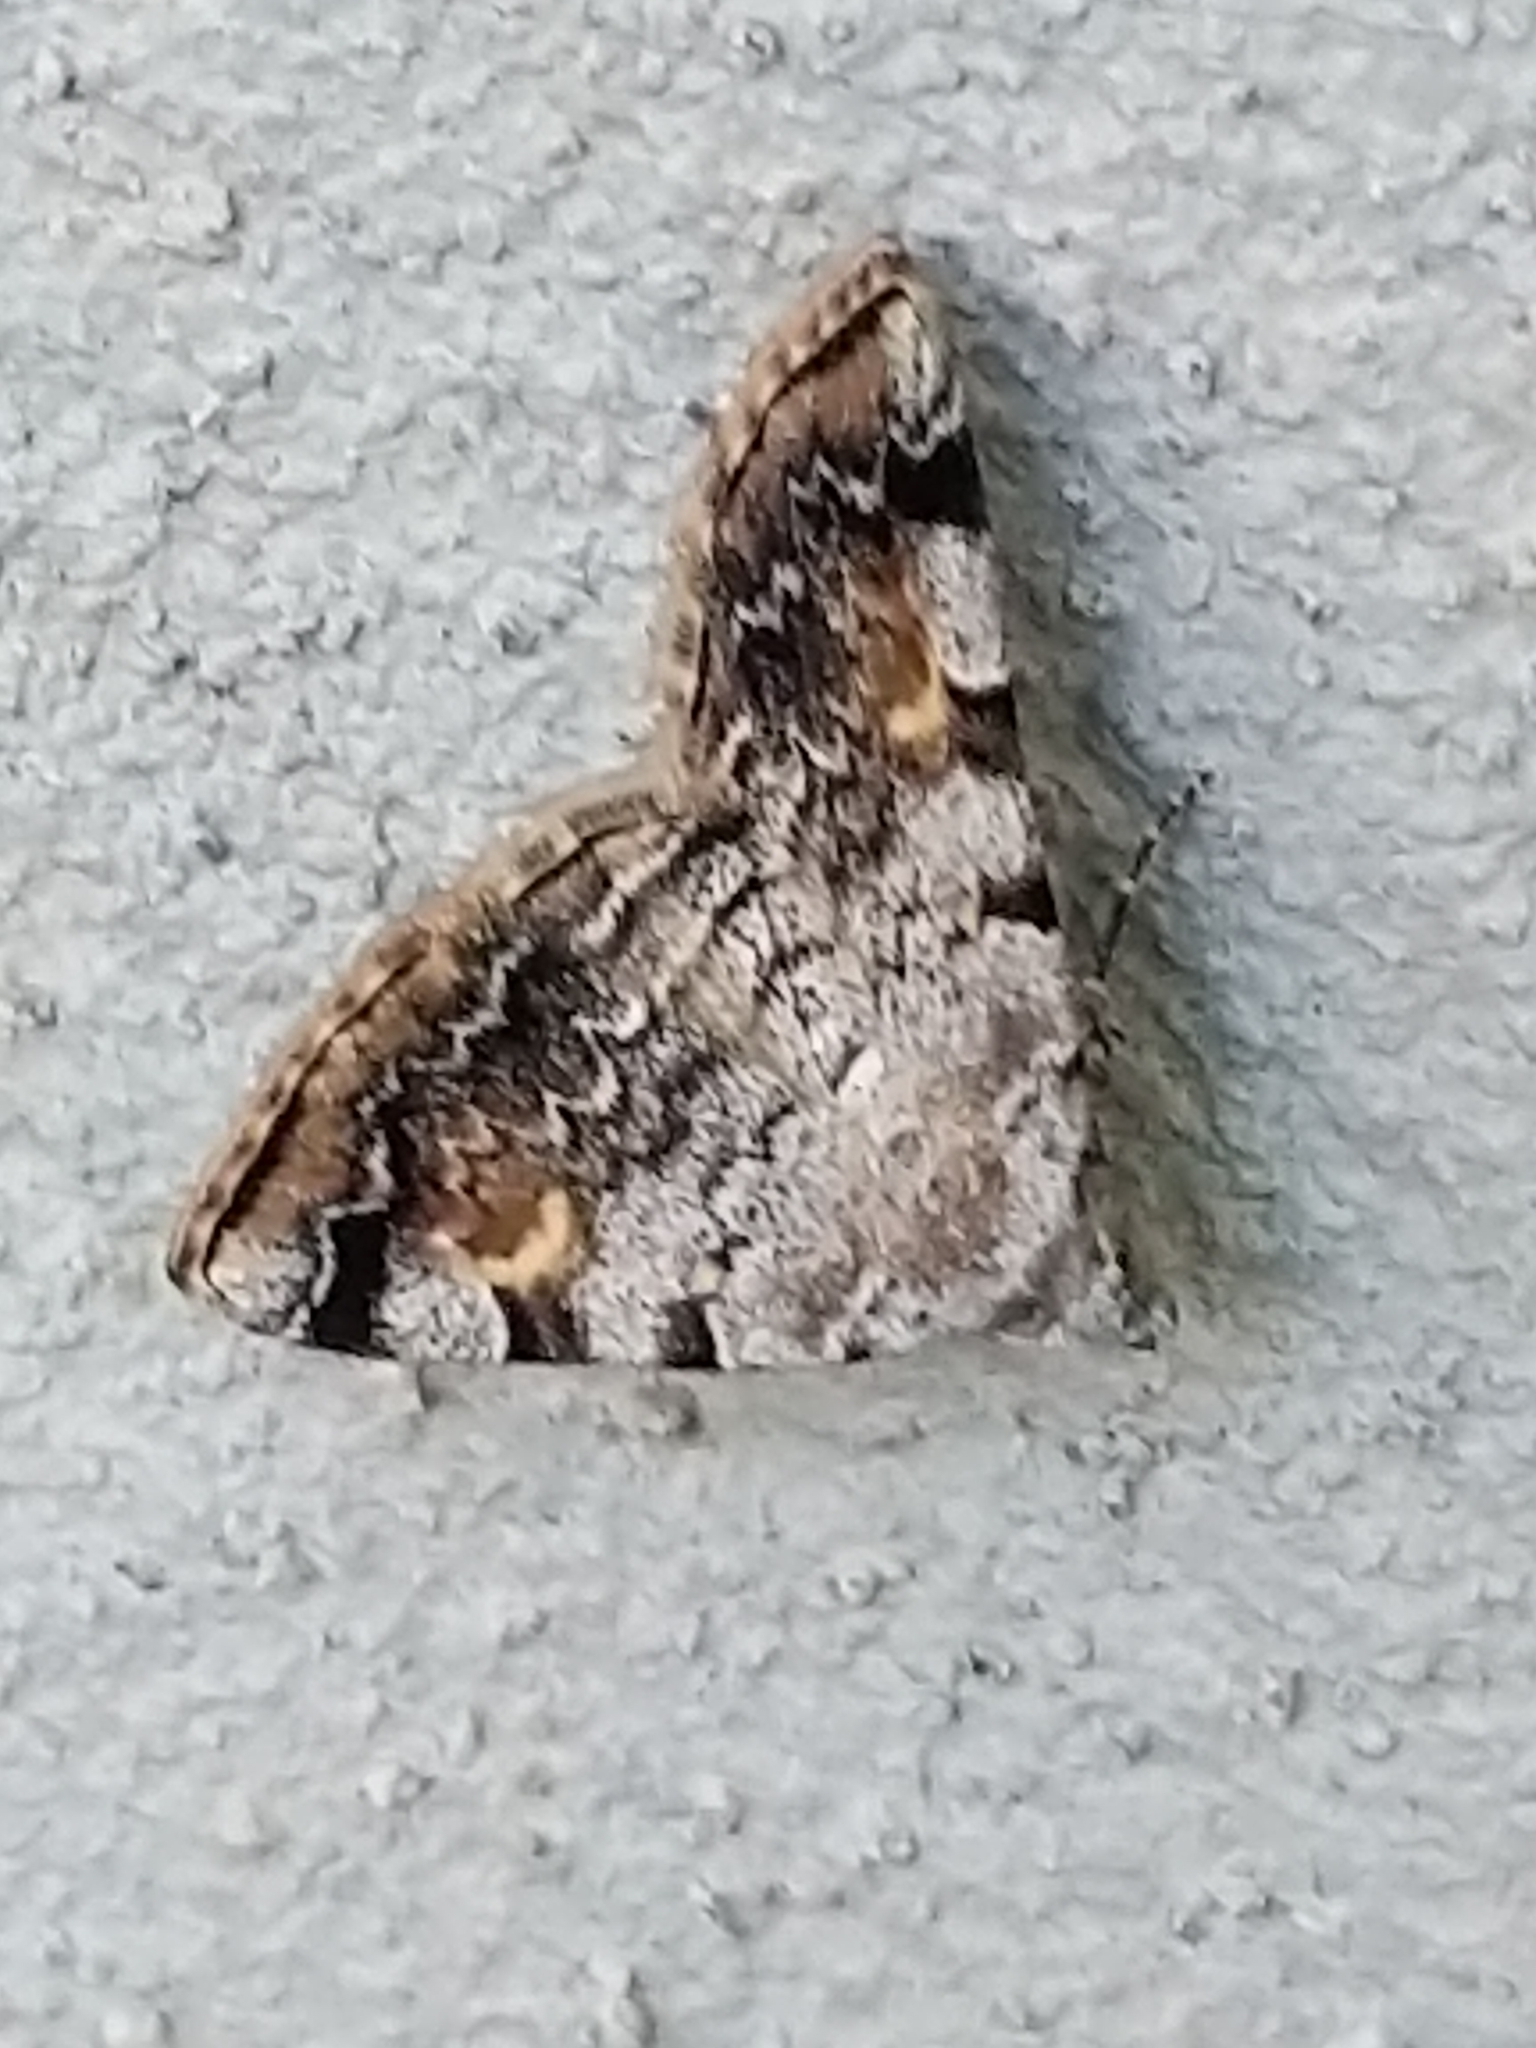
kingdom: Animalia
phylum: Arthropoda
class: Insecta
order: Lepidoptera
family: Erebidae
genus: Idia
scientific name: Idia americalis
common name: American idia moth
